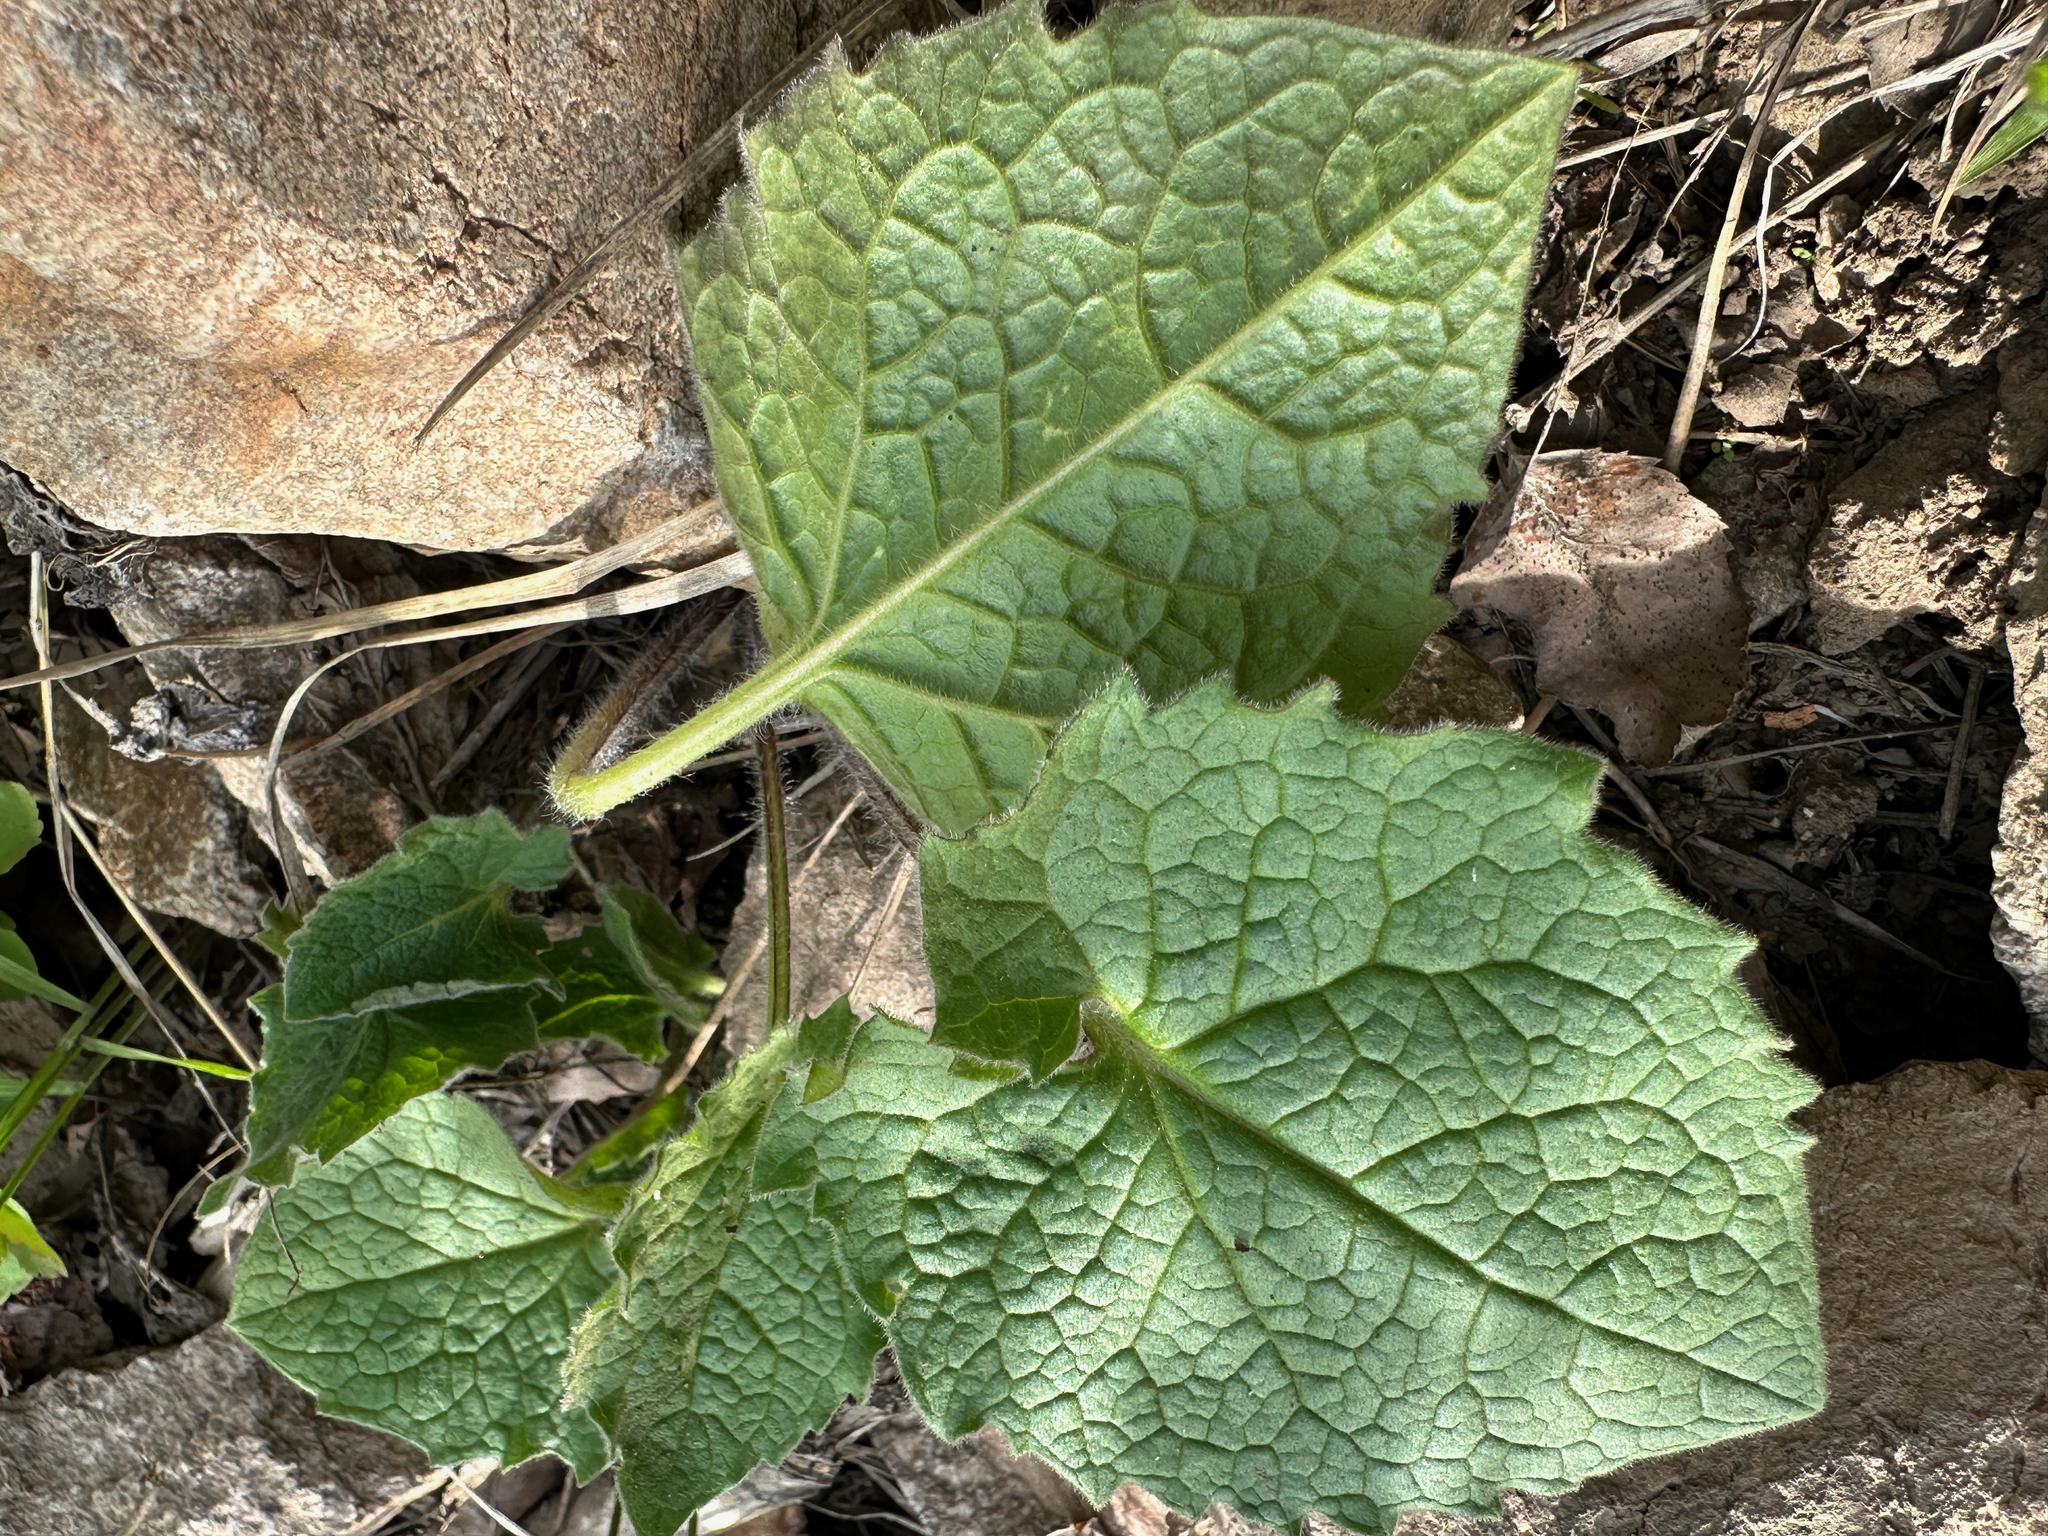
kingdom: Plantae
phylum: Tracheophyta
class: Magnoliopsida
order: Asterales
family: Asteraceae
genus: Arnica
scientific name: Arnica cordifolia
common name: Heart-leaf arnica
